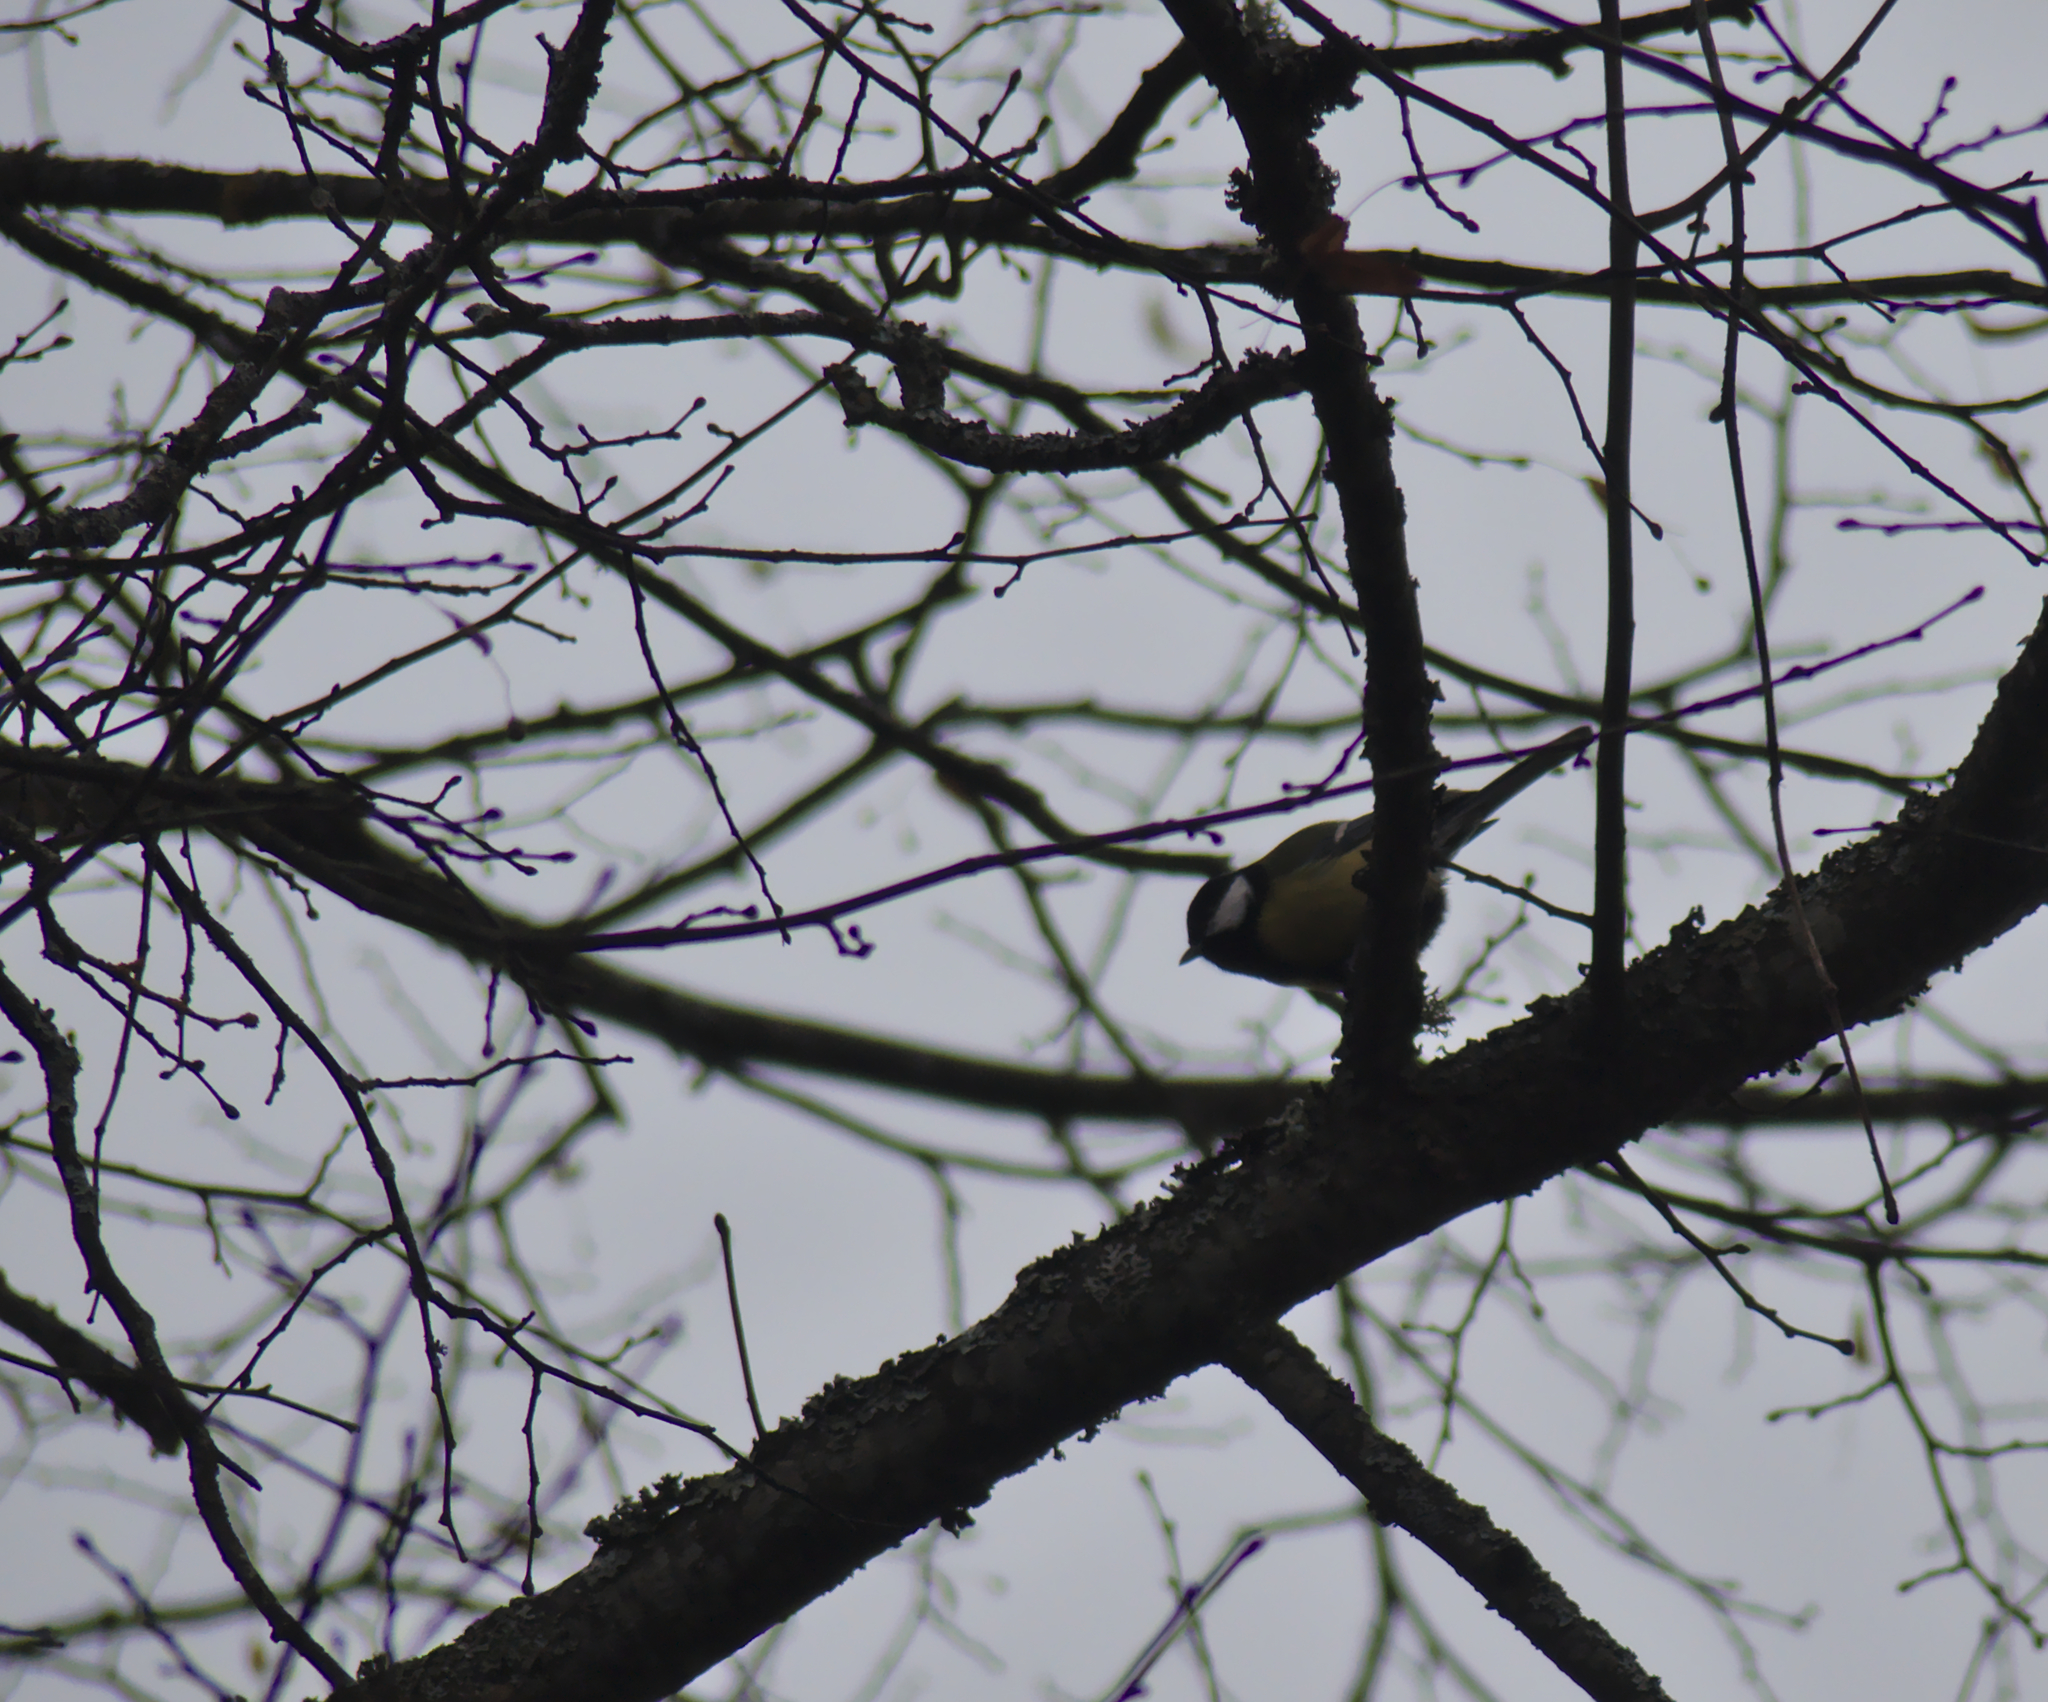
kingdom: Animalia
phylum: Chordata
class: Aves
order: Passeriformes
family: Paridae
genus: Parus
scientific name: Parus major
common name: Great tit
